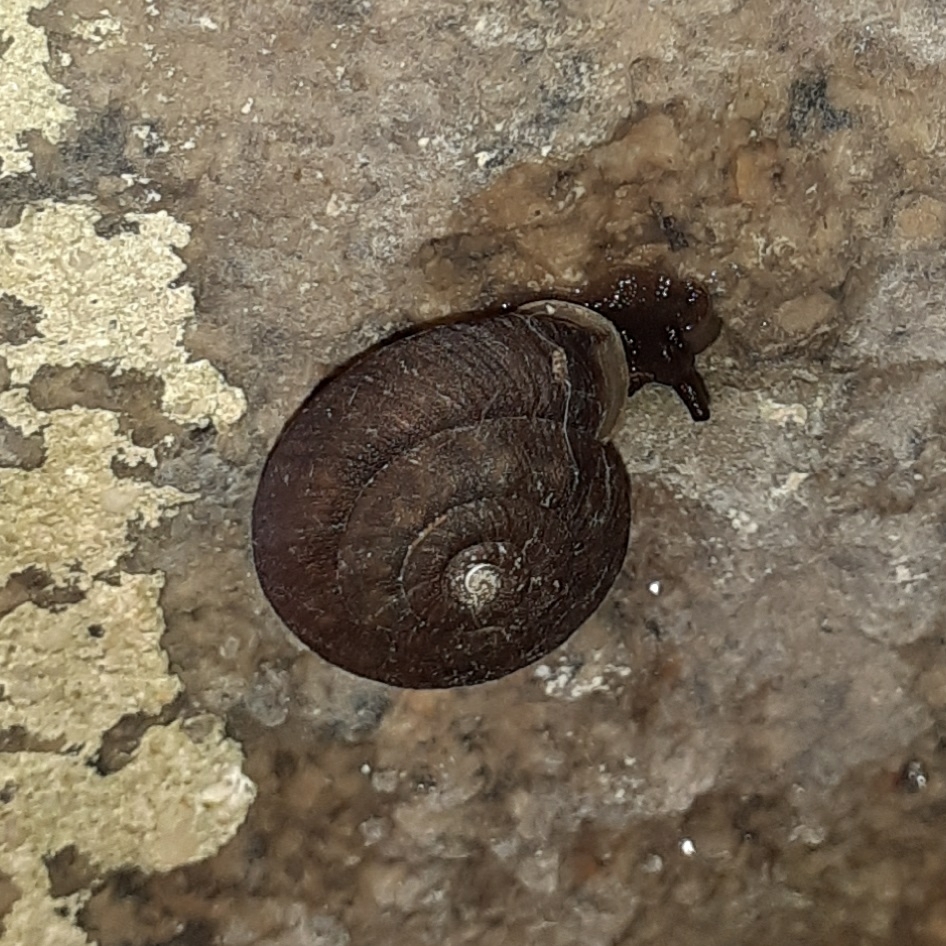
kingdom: Animalia
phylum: Mollusca
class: Gastropoda
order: Stylommatophora
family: Helicidae
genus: Helicigona
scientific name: Helicigona lapicida
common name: Lapidary snail
